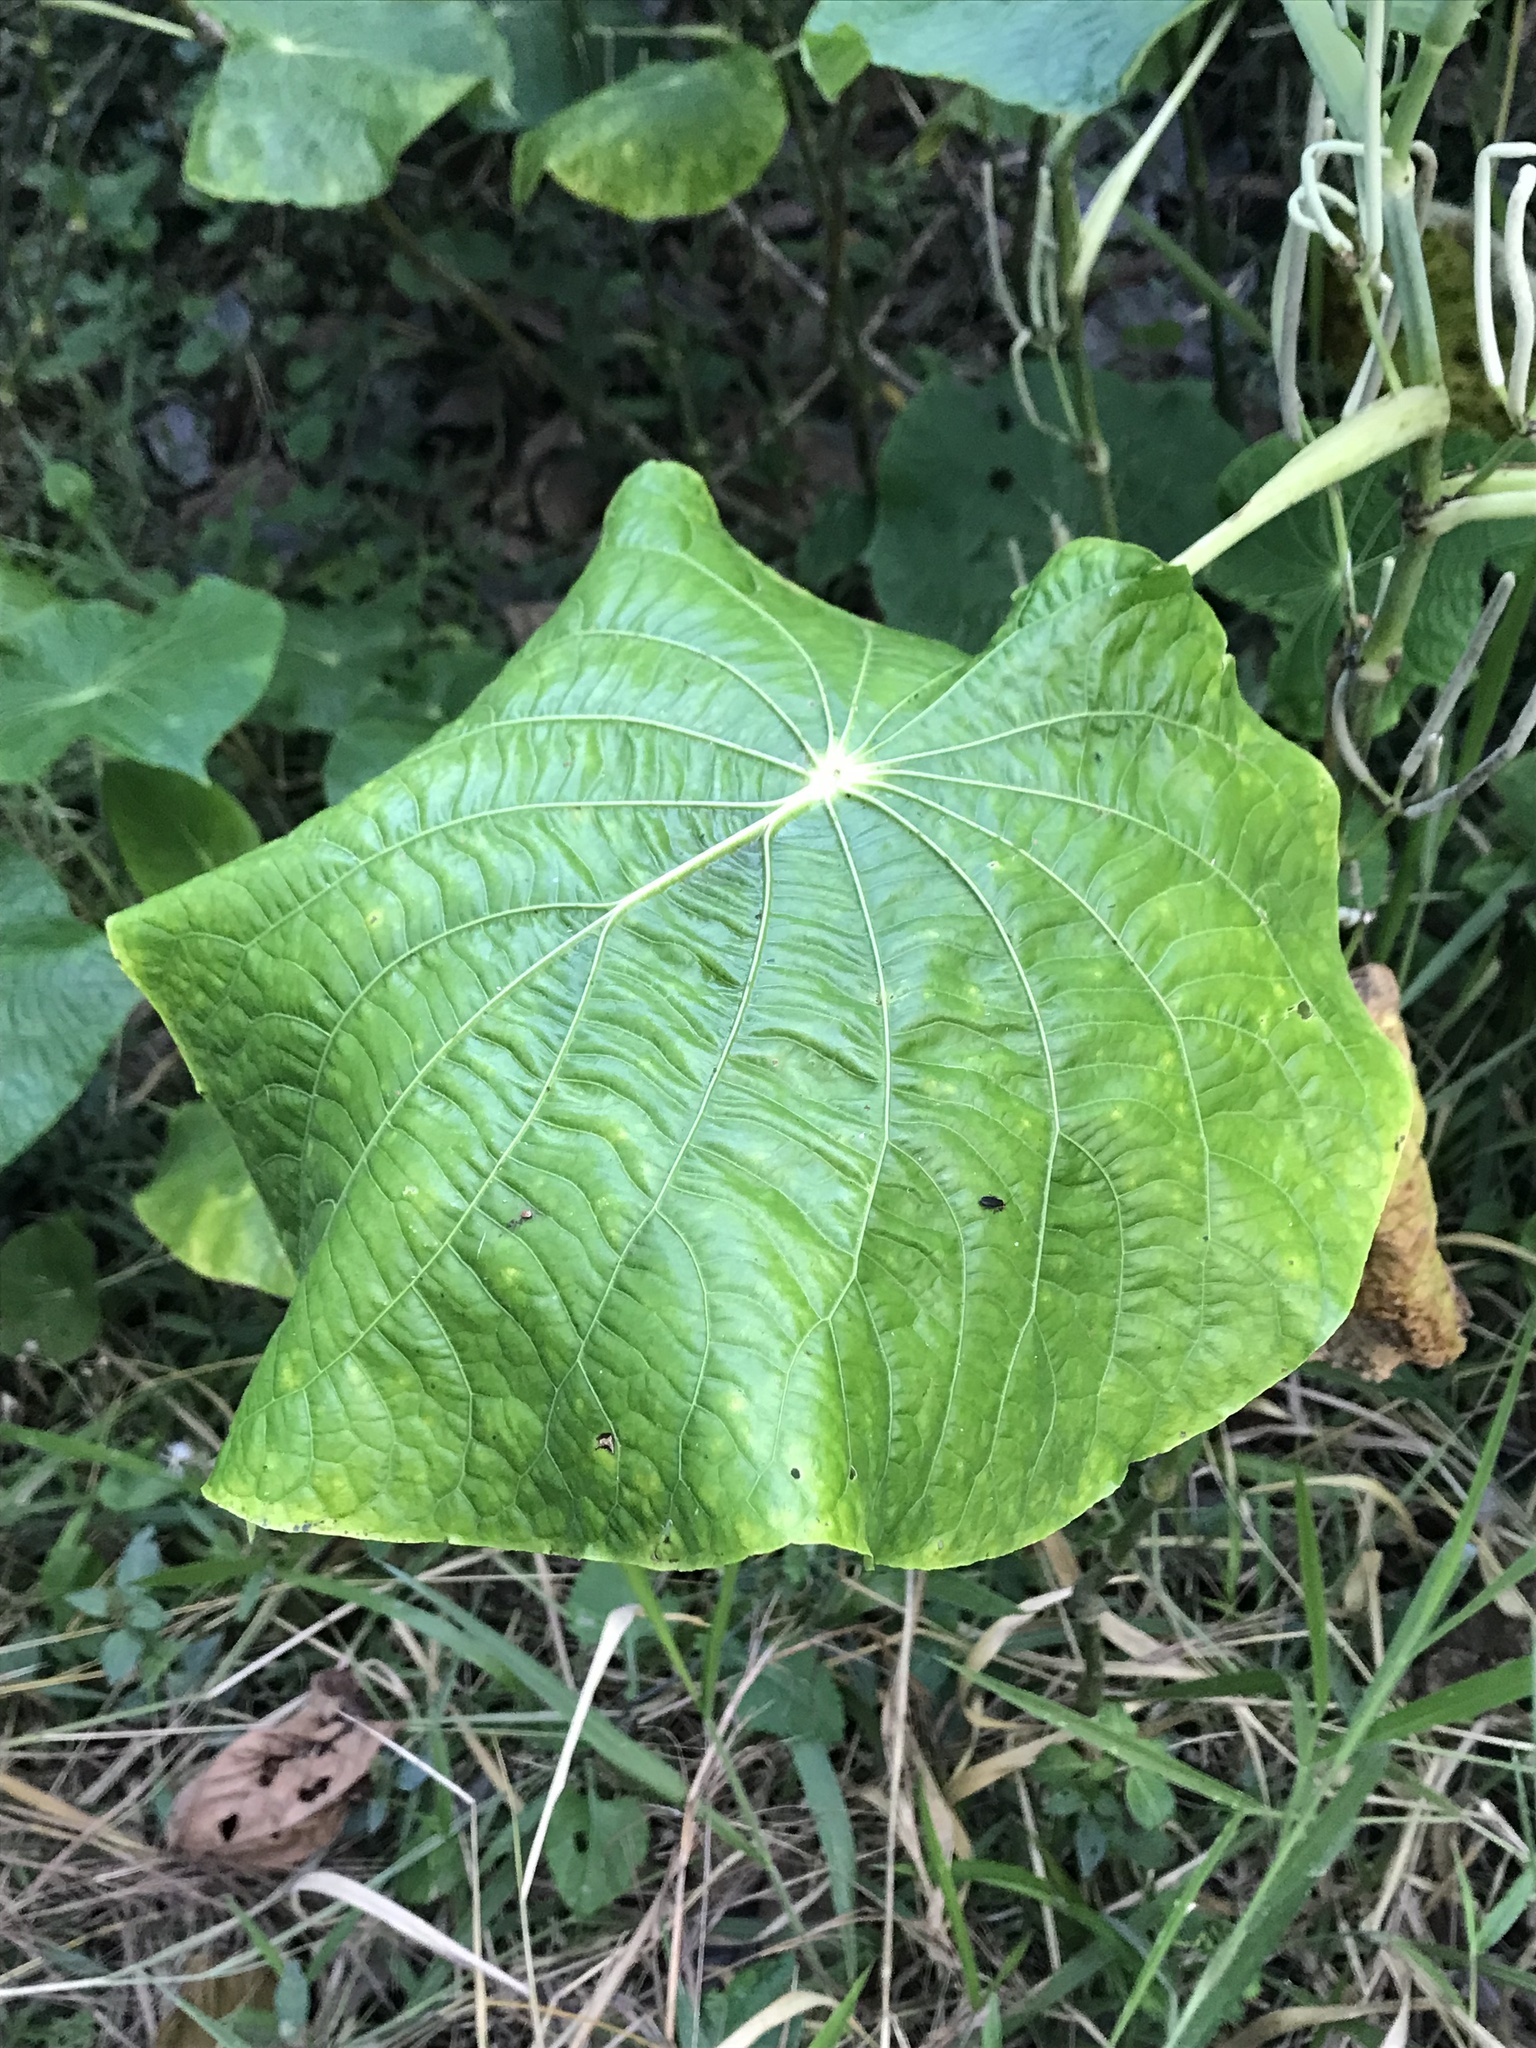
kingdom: Plantae
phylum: Tracheophyta
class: Magnoliopsida
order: Piperales
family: Piperaceae
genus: Piper
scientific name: Piper peltatum
